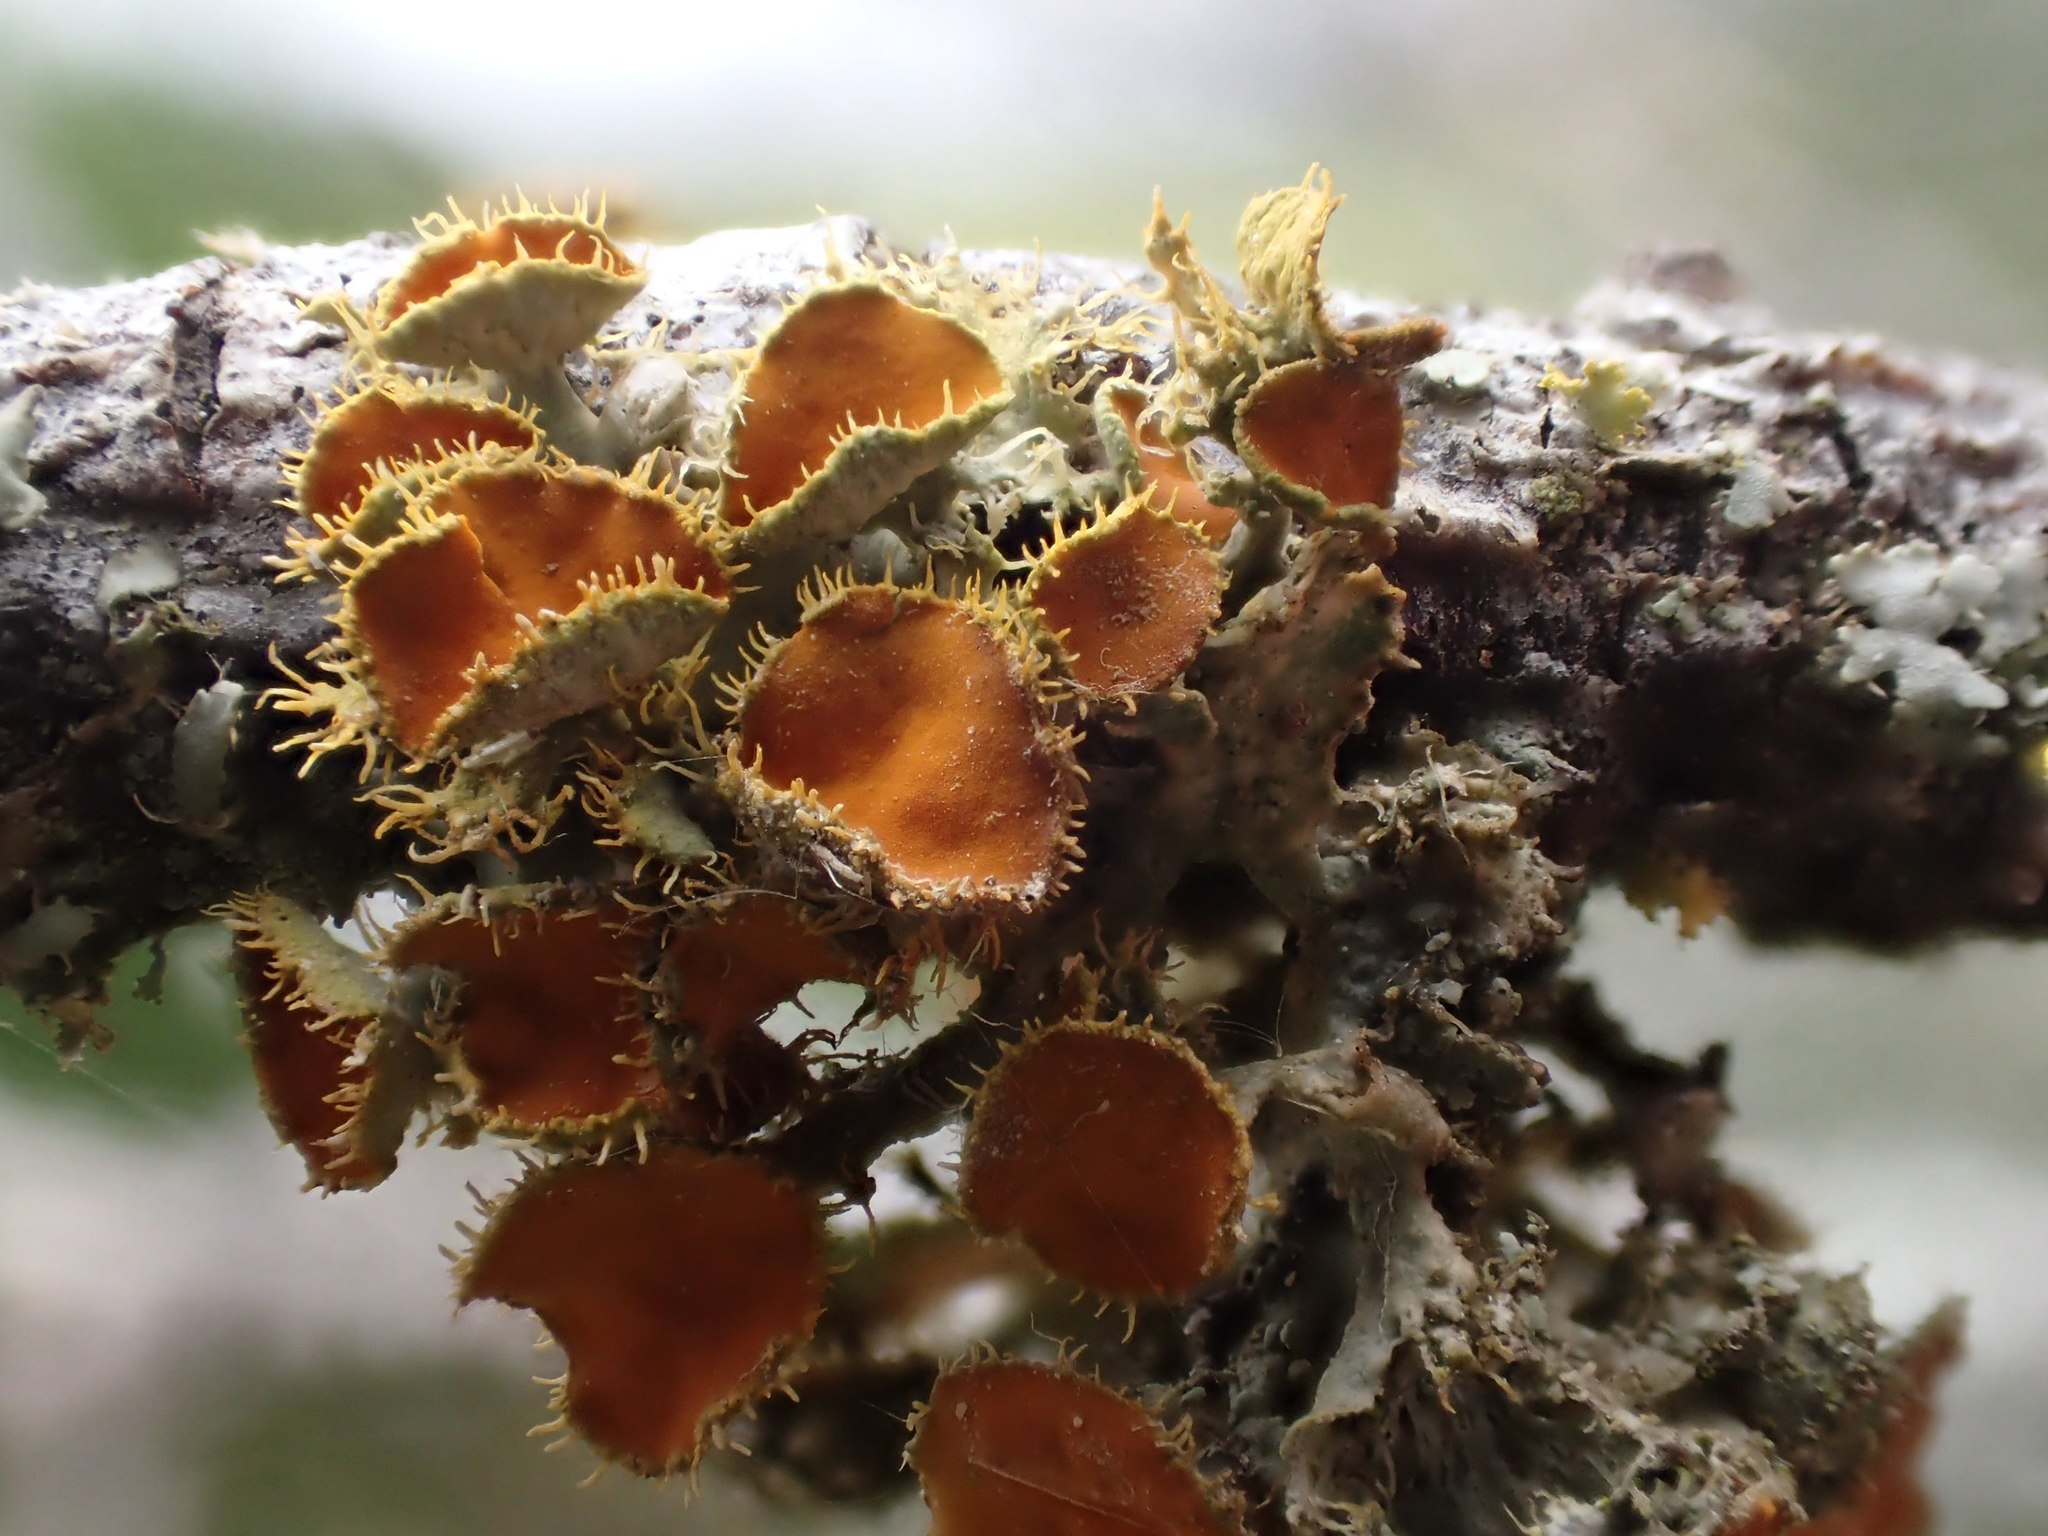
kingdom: Fungi
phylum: Ascomycota
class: Lecanoromycetes
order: Teloschistales
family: Teloschistaceae
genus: Niorma
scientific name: Niorma chrysophthalma
